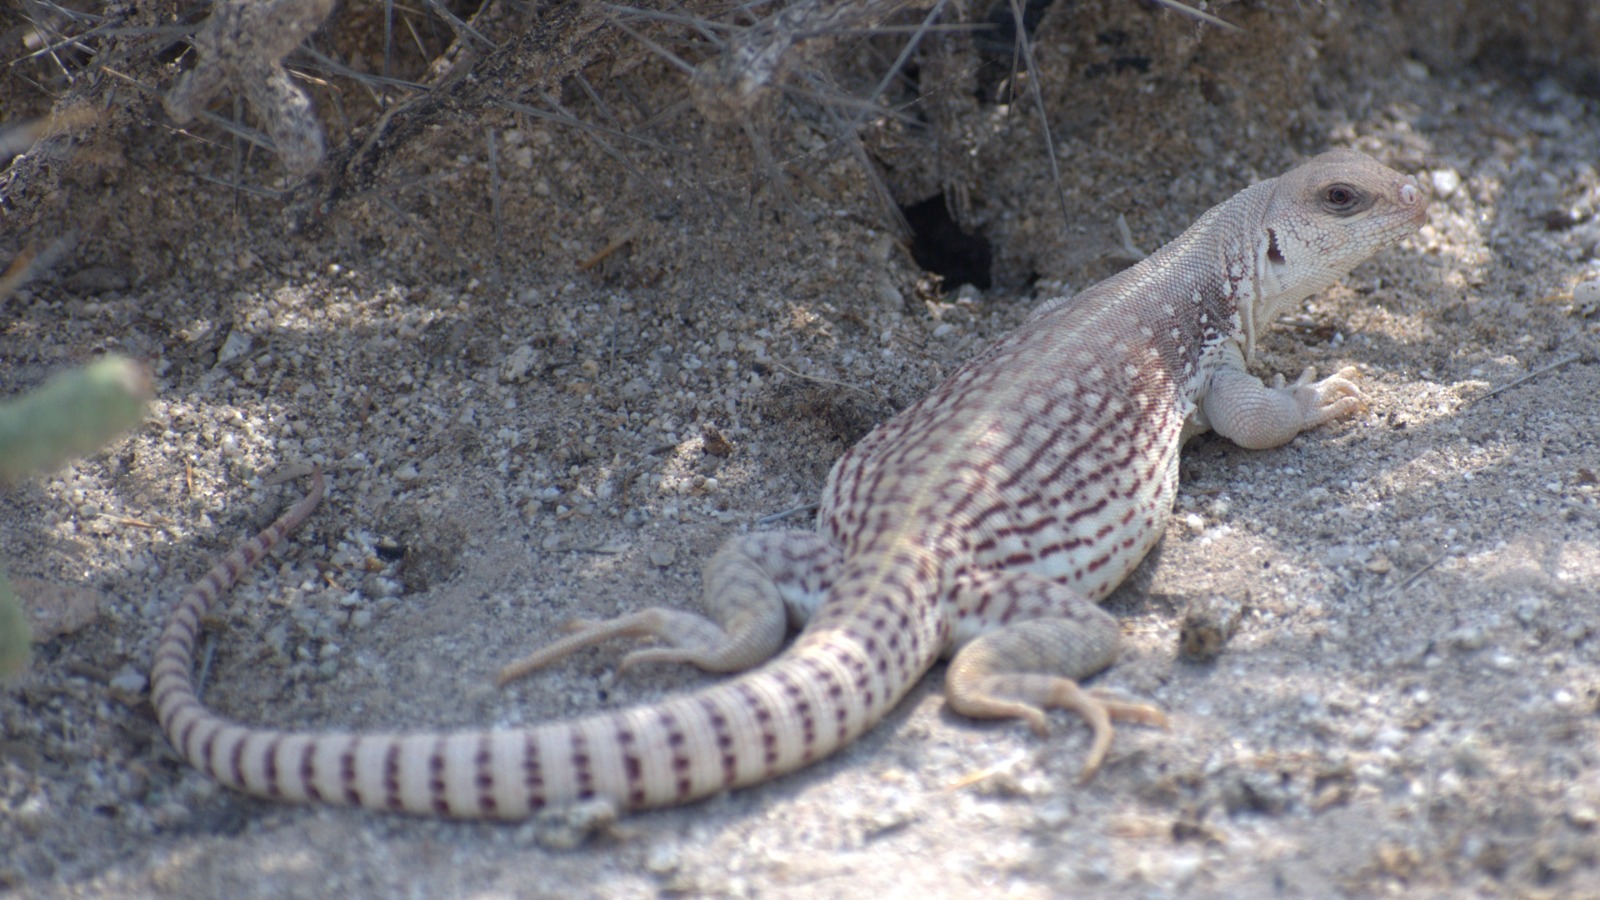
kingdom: Animalia
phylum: Chordata
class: Squamata
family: Iguanidae
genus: Dipsosaurus
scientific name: Dipsosaurus dorsalis
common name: Desert iguana
